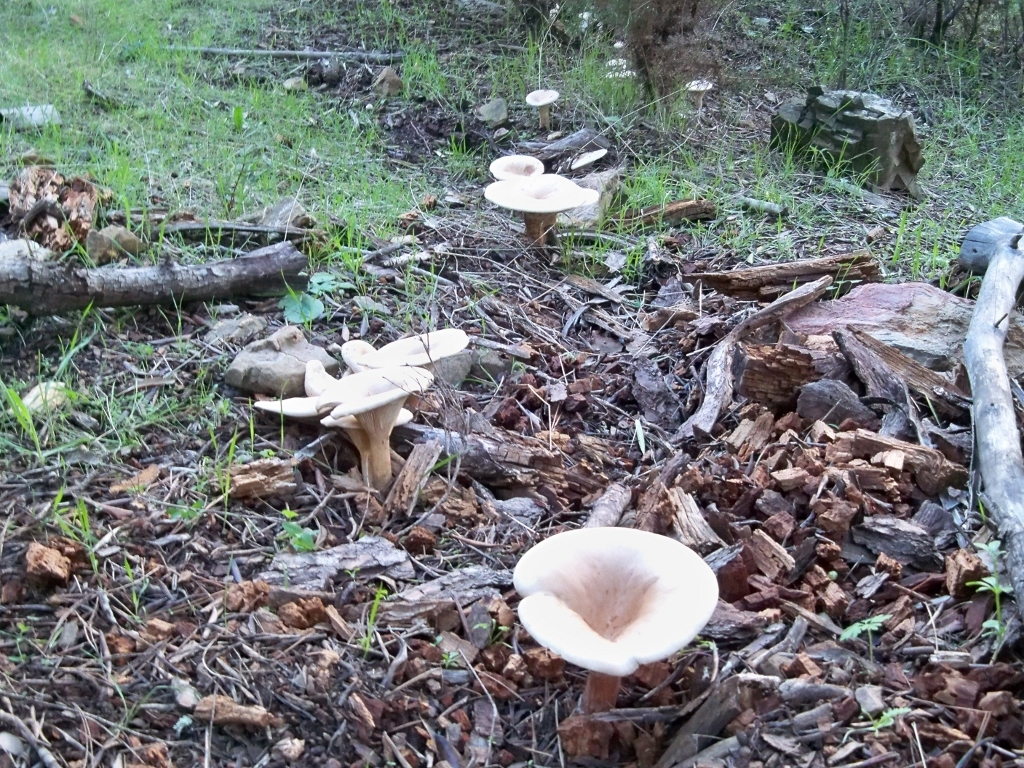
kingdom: Fungi
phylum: Basidiomycota
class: Agaricomycetes
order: Agaricales
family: Tricholomataceae
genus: Infundibulicybe
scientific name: Infundibulicybe geotropa
